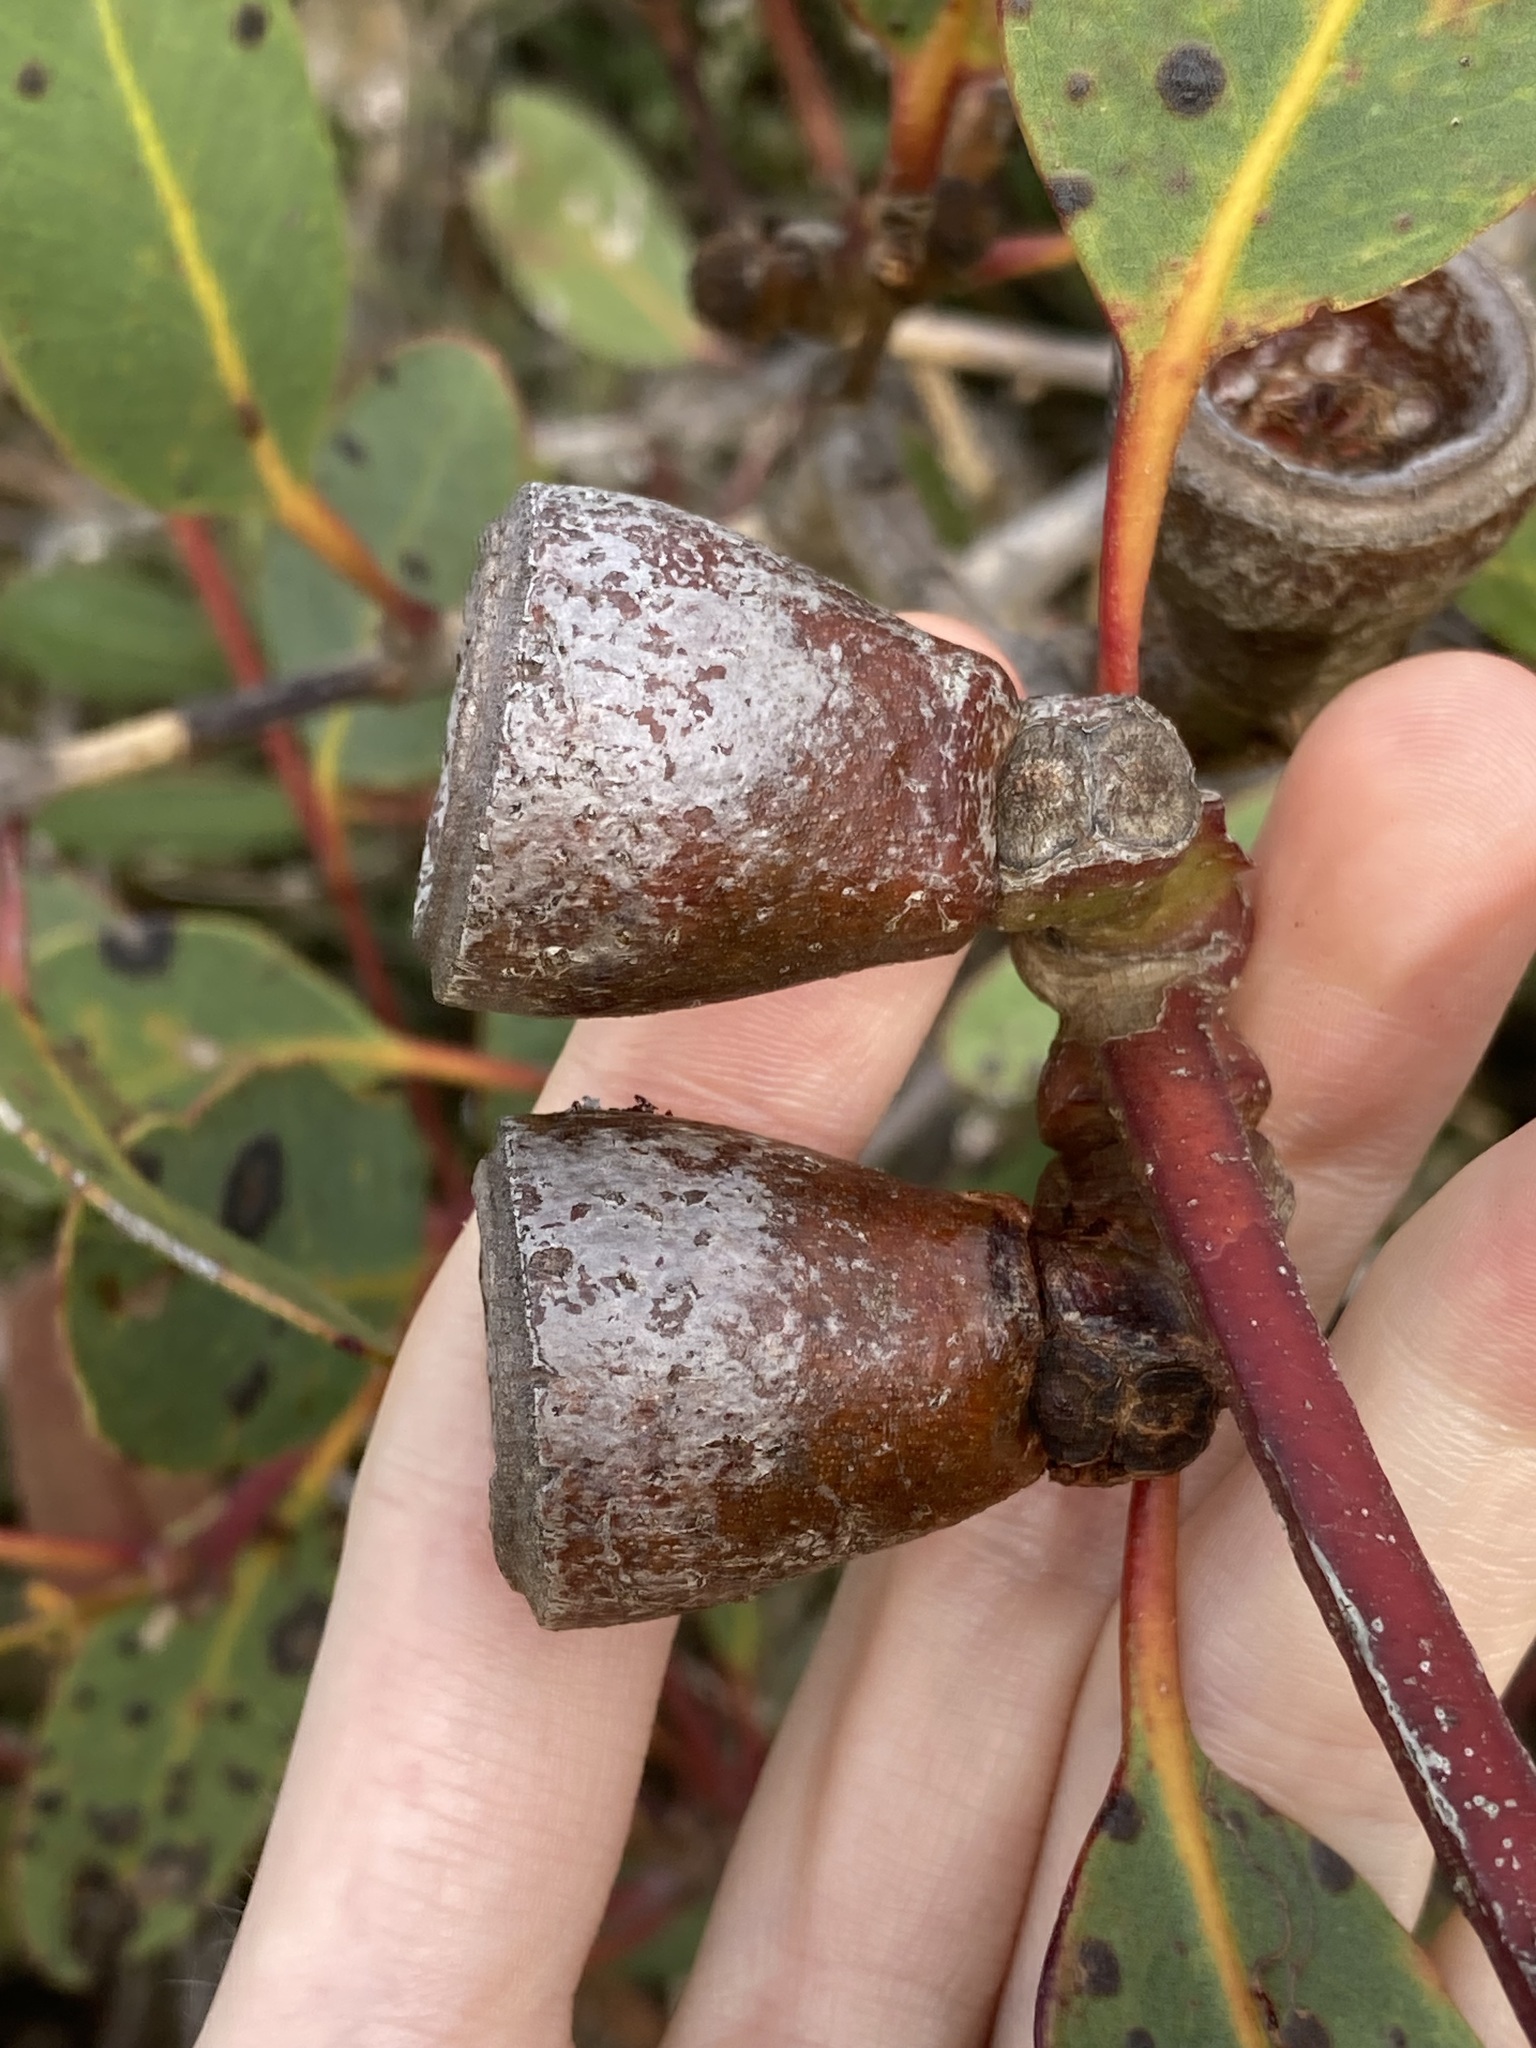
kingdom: Plantae
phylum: Tracheophyta
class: Magnoliopsida
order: Myrtales
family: Myrtaceae
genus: Eucalyptus
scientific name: Eucalyptus preissiana
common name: Stirling range mallee
